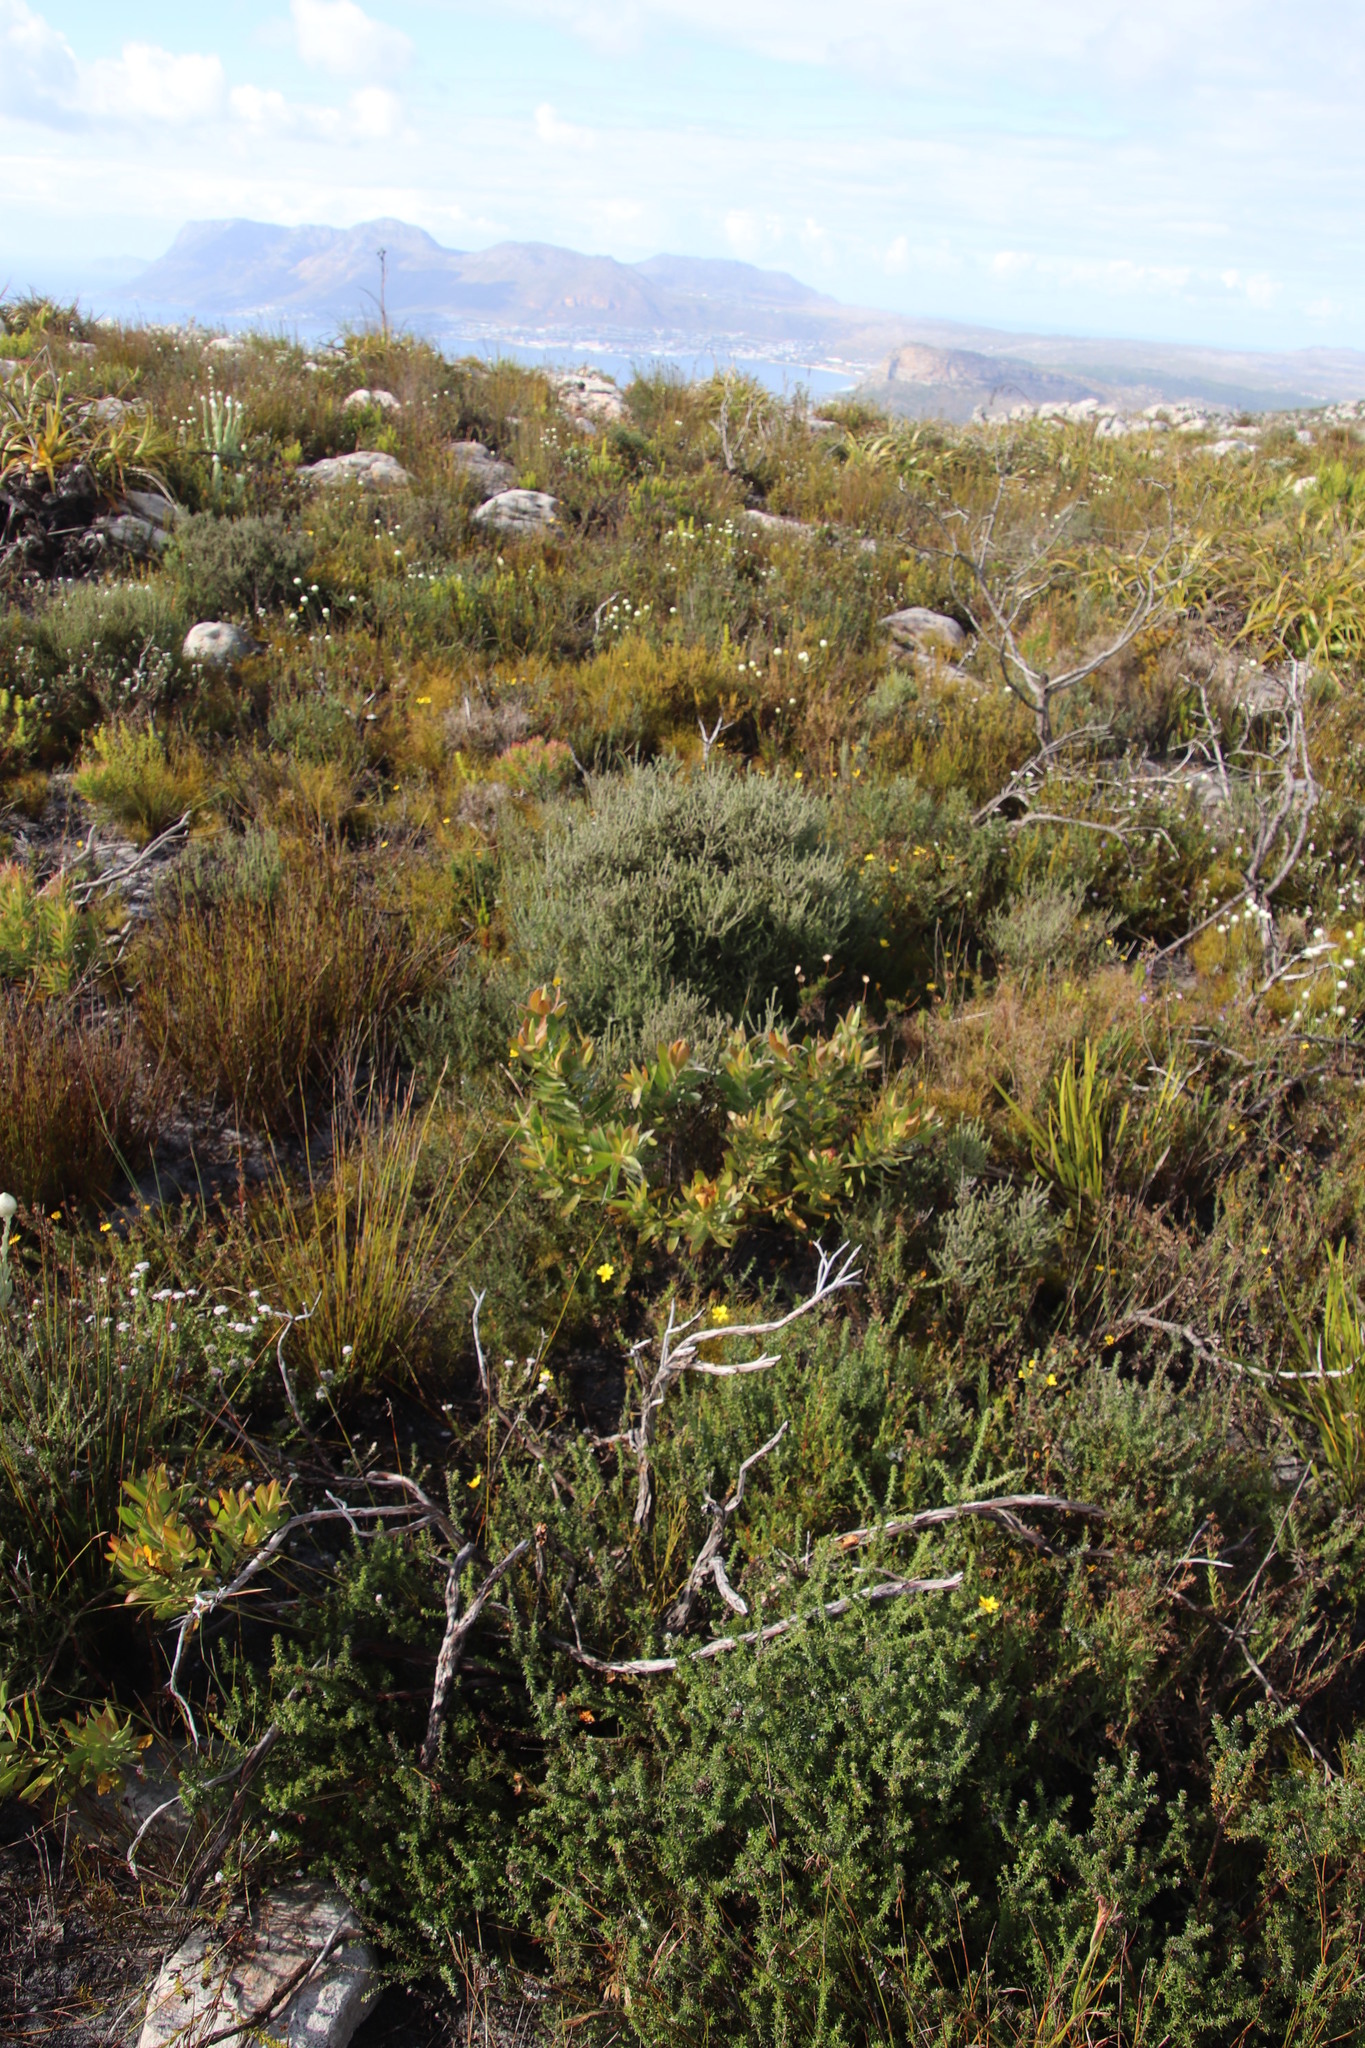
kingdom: Plantae
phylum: Tracheophyta
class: Magnoliopsida
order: Proteales
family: Proteaceae
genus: Leucadendron
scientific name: Leucadendron laureolum
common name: Golden sunshinebush
